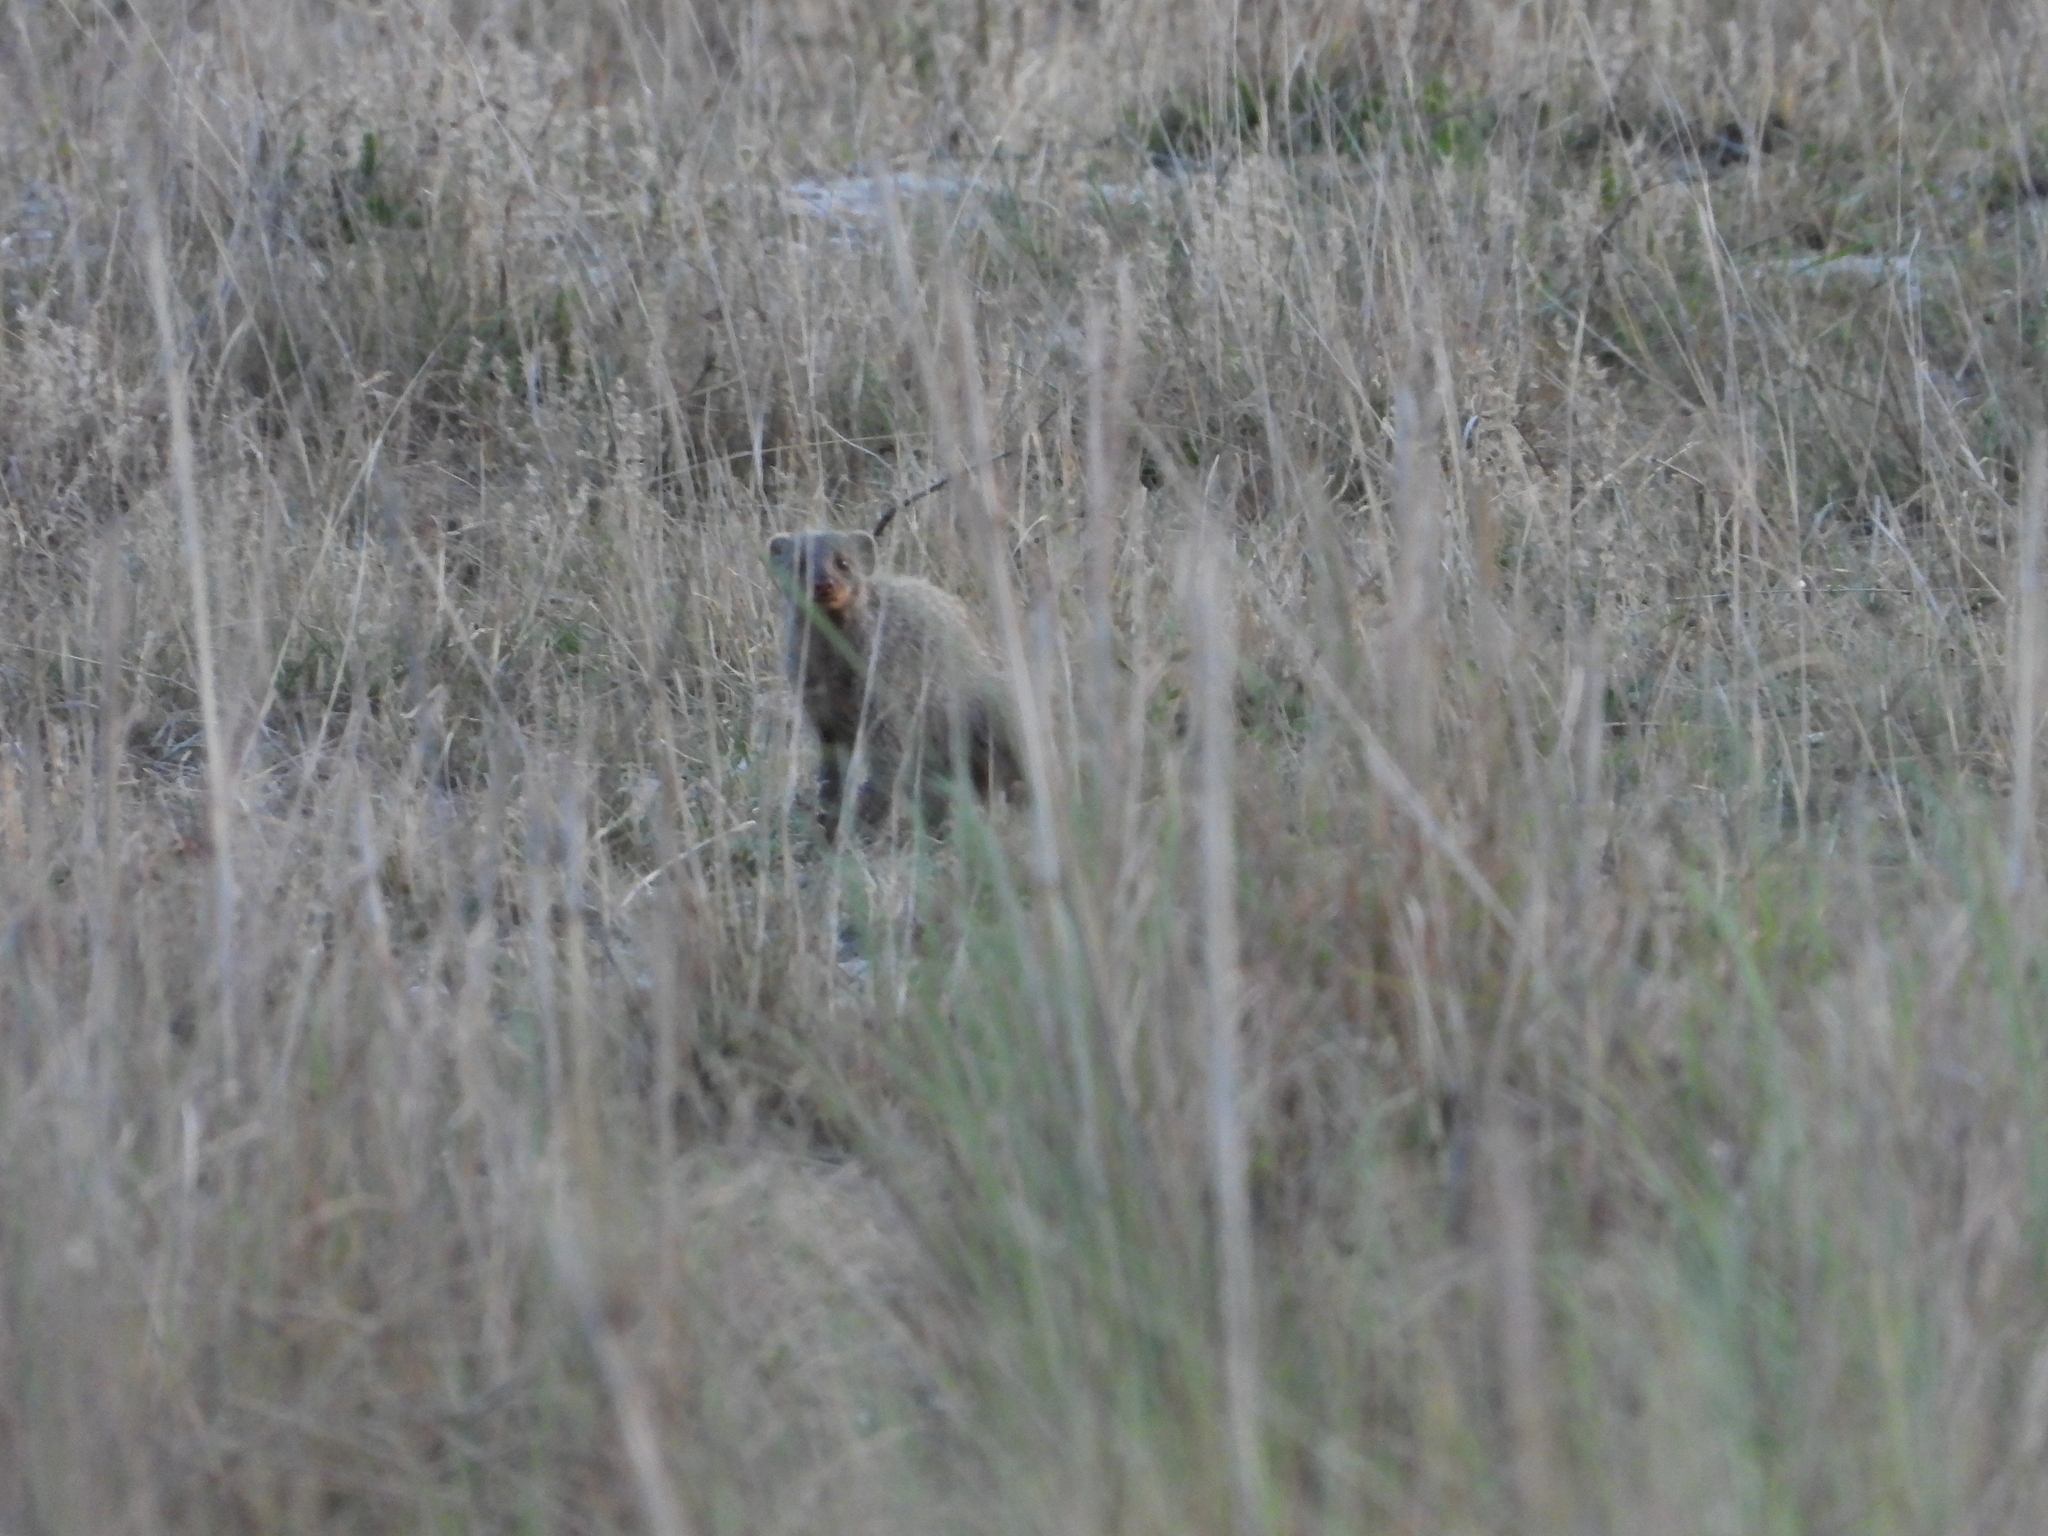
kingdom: Animalia
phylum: Chordata
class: Mammalia
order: Carnivora
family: Herpestidae
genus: Mungos
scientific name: Mungos mungo
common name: Banded mongoose
